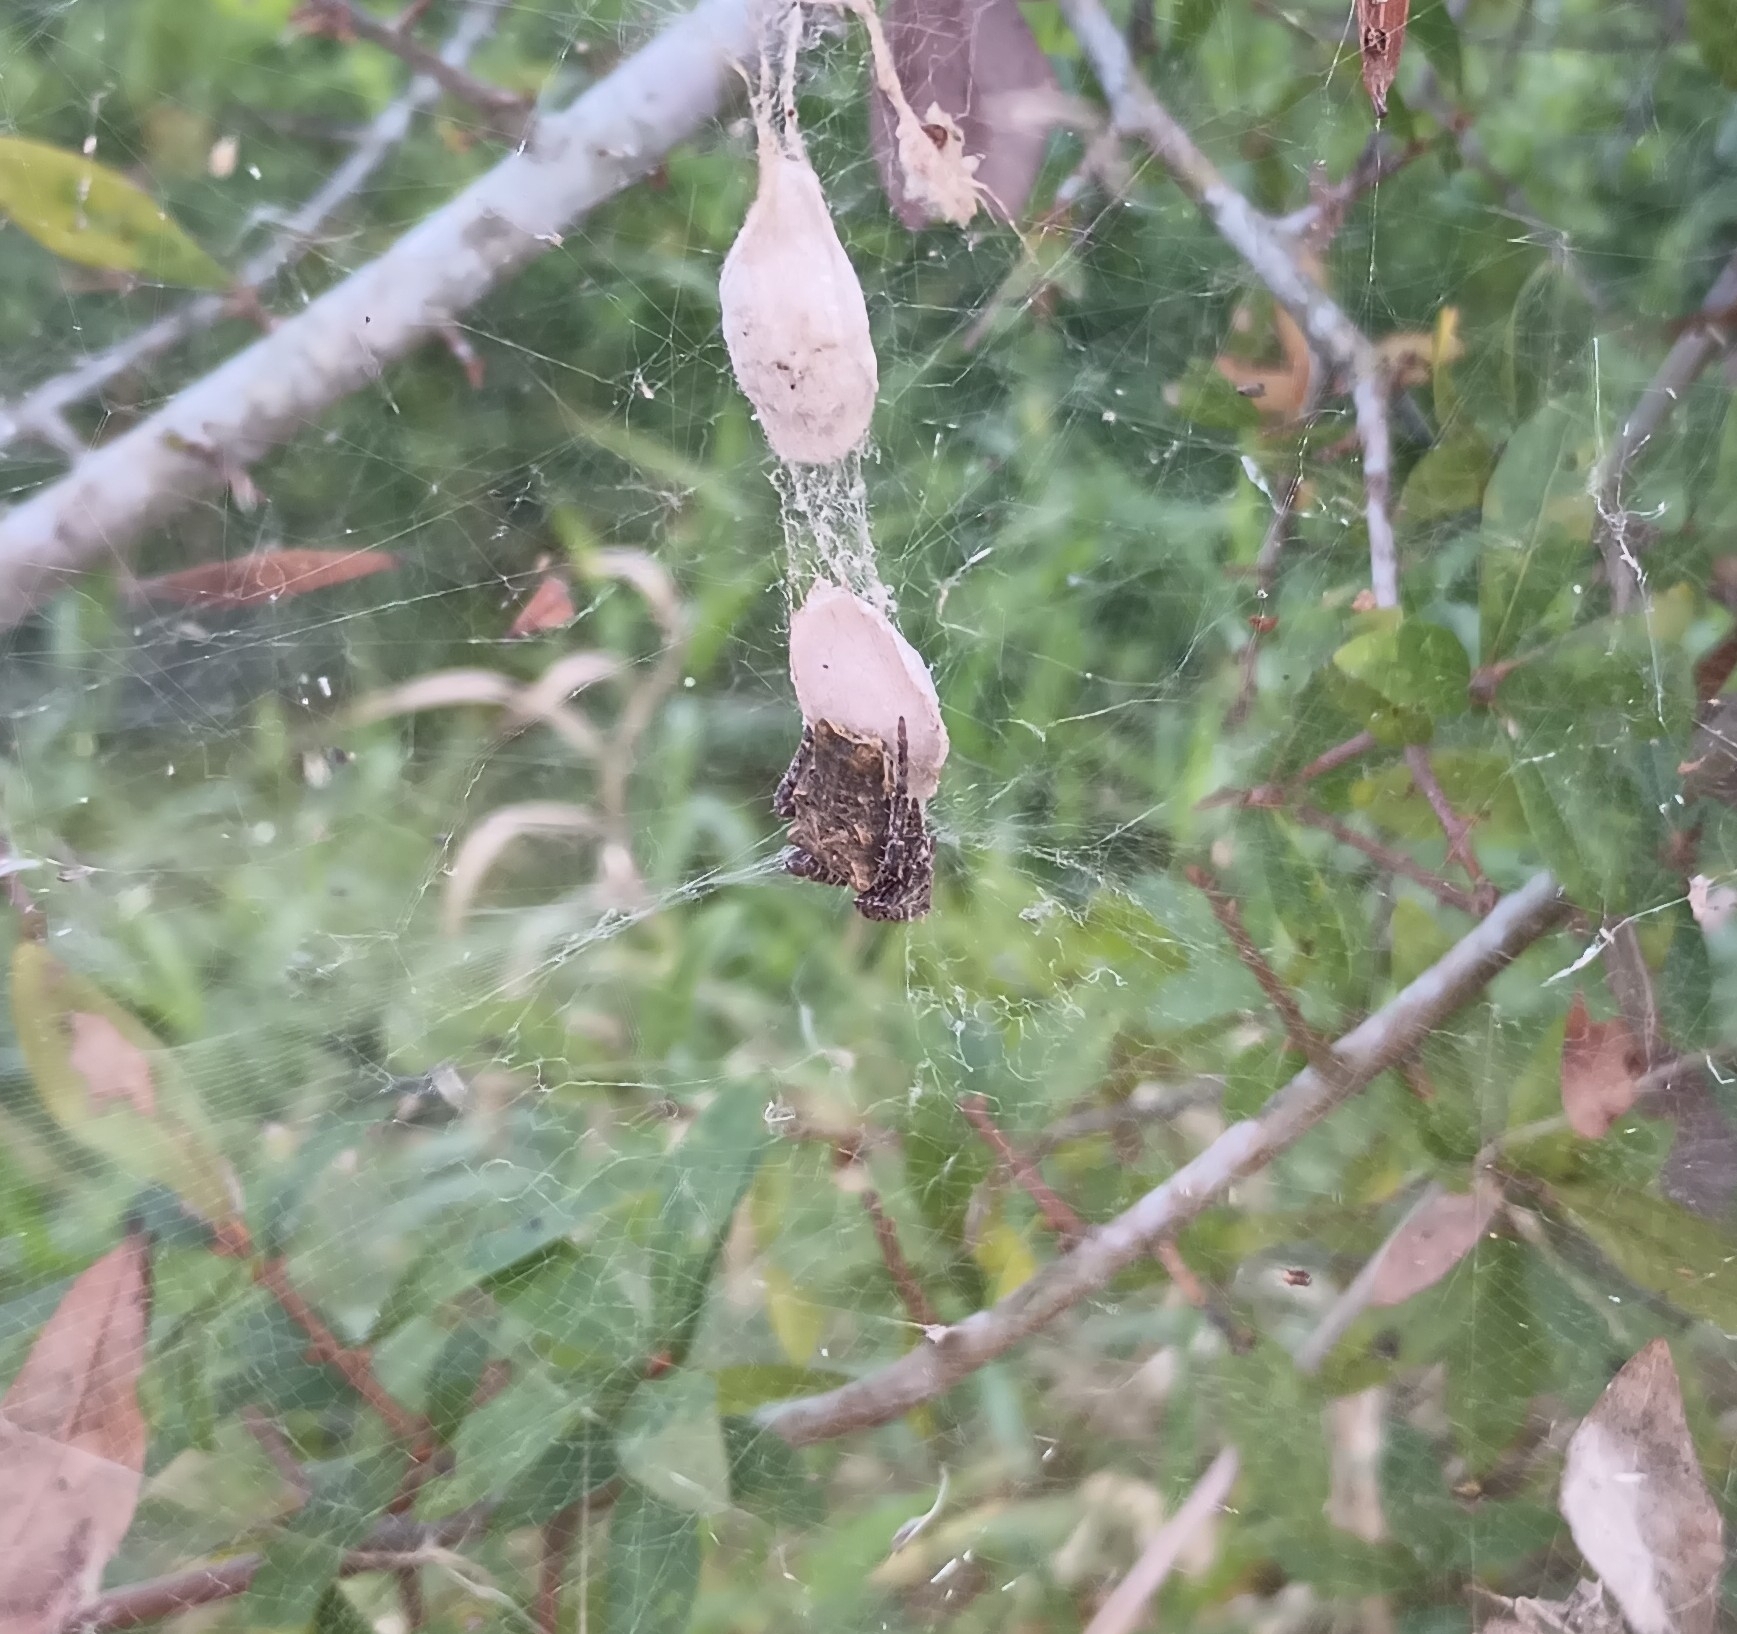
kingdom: Animalia
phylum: Arthropoda
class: Arachnida
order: Araneae
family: Araneidae
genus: Cyrtophora
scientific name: Cyrtophora citricola
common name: Orb weavers
